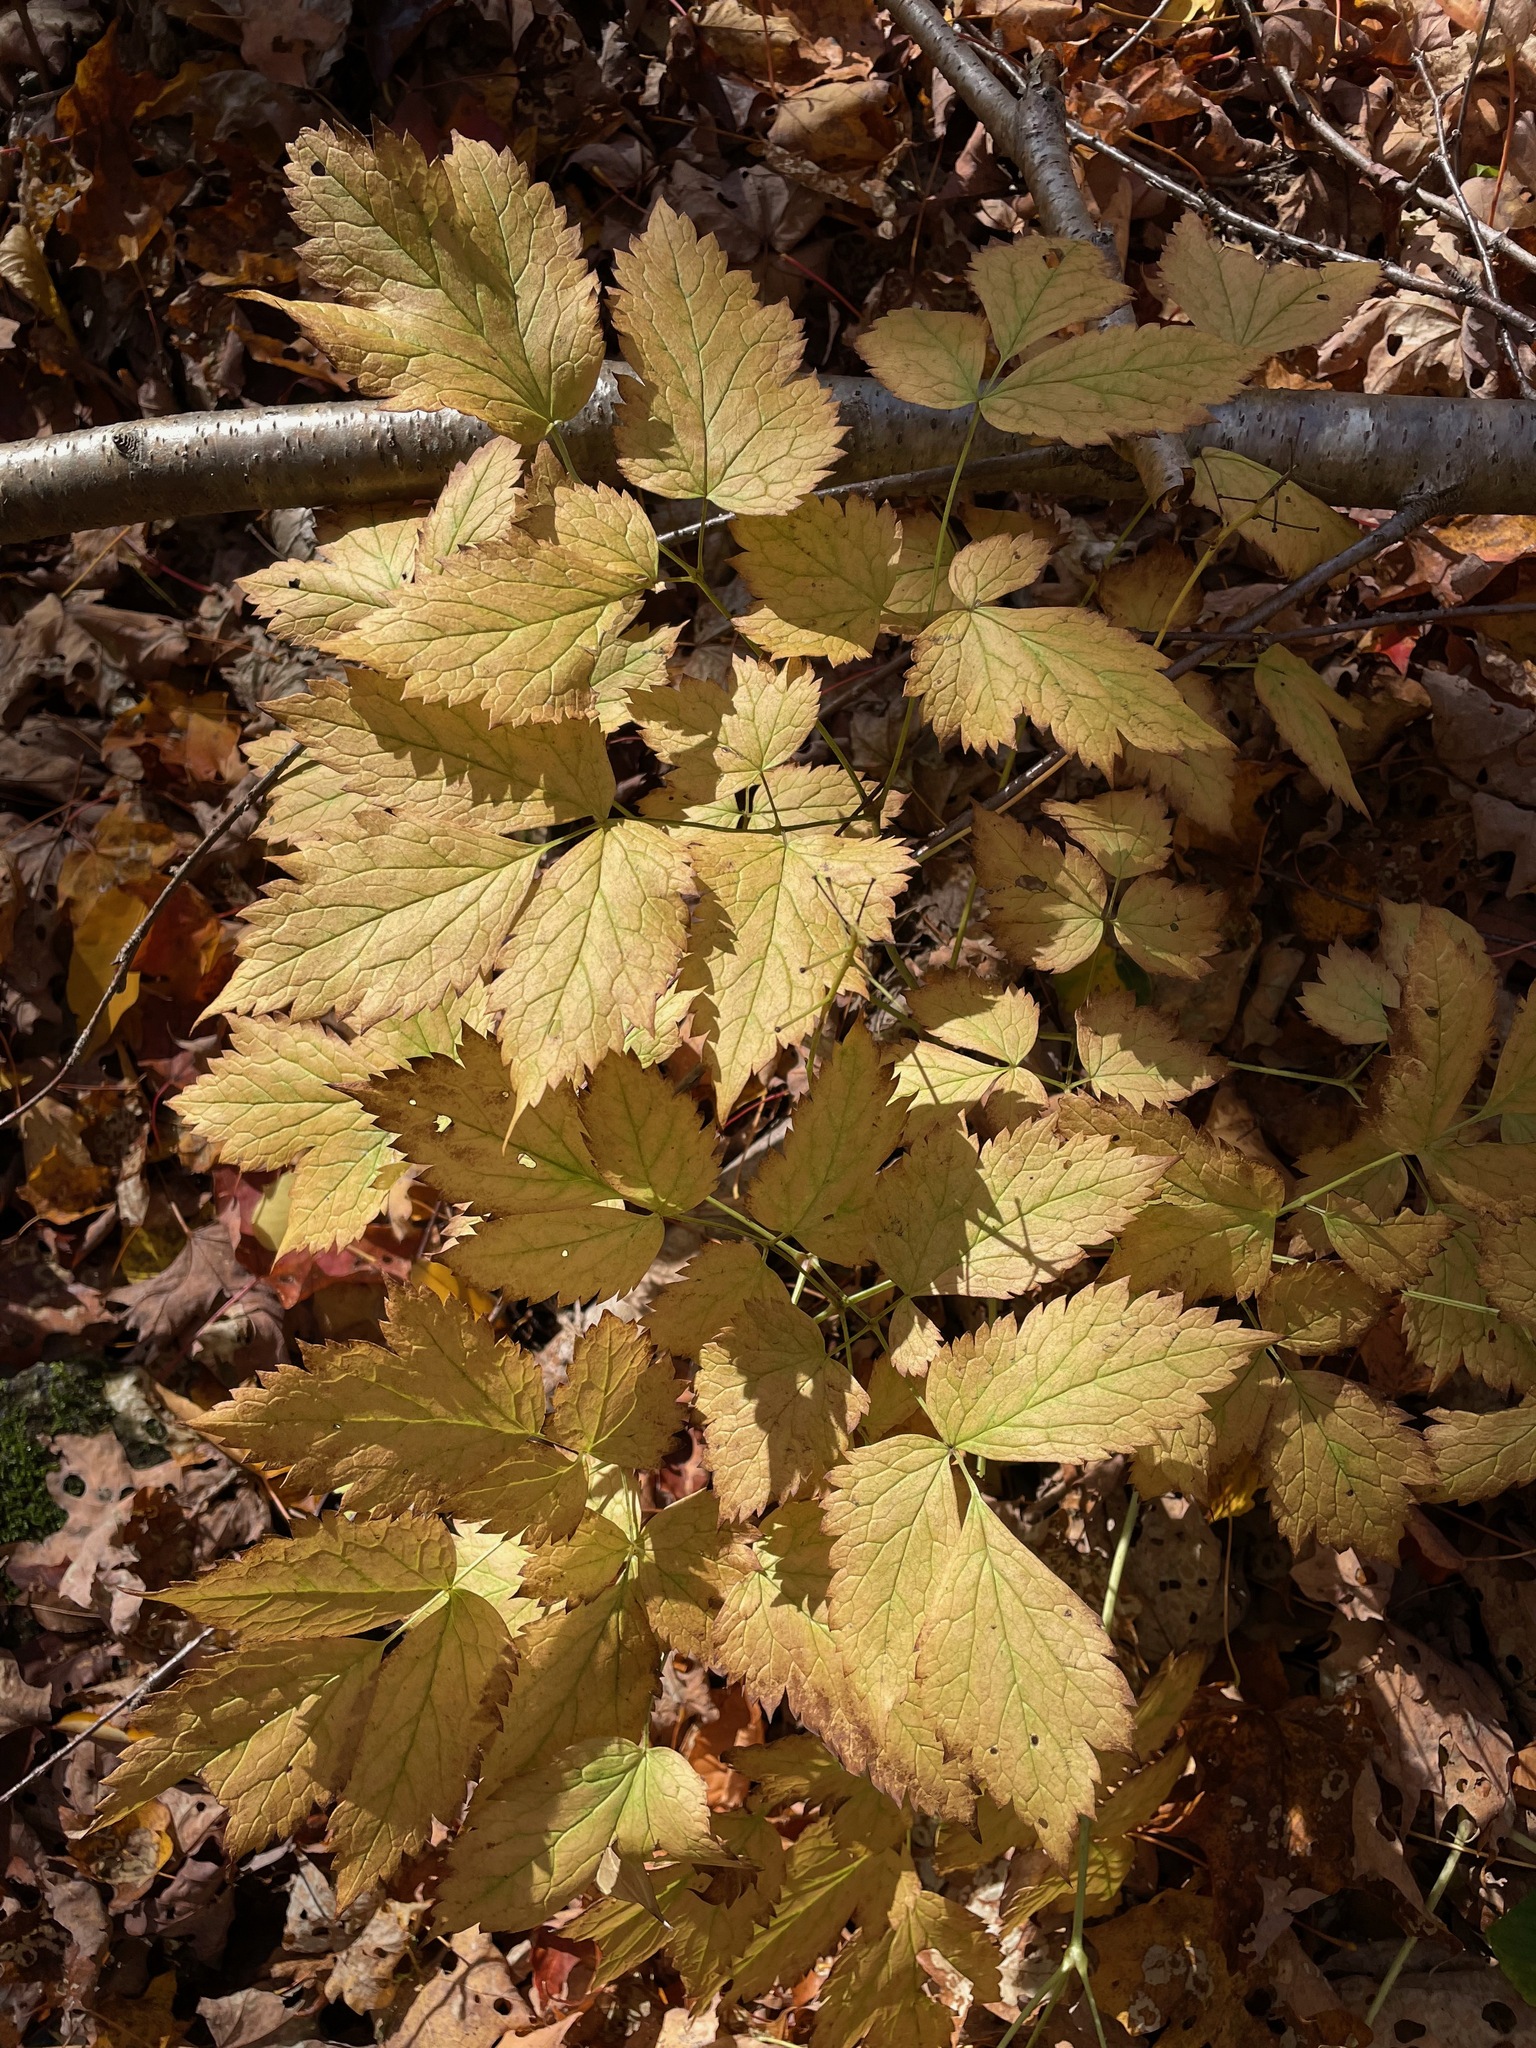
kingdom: Plantae
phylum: Tracheophyta
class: Magnoliopsida
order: Ranunculales
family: Ranunculaceae
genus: Actaea
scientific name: Actaea rubra
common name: Red baneberry
